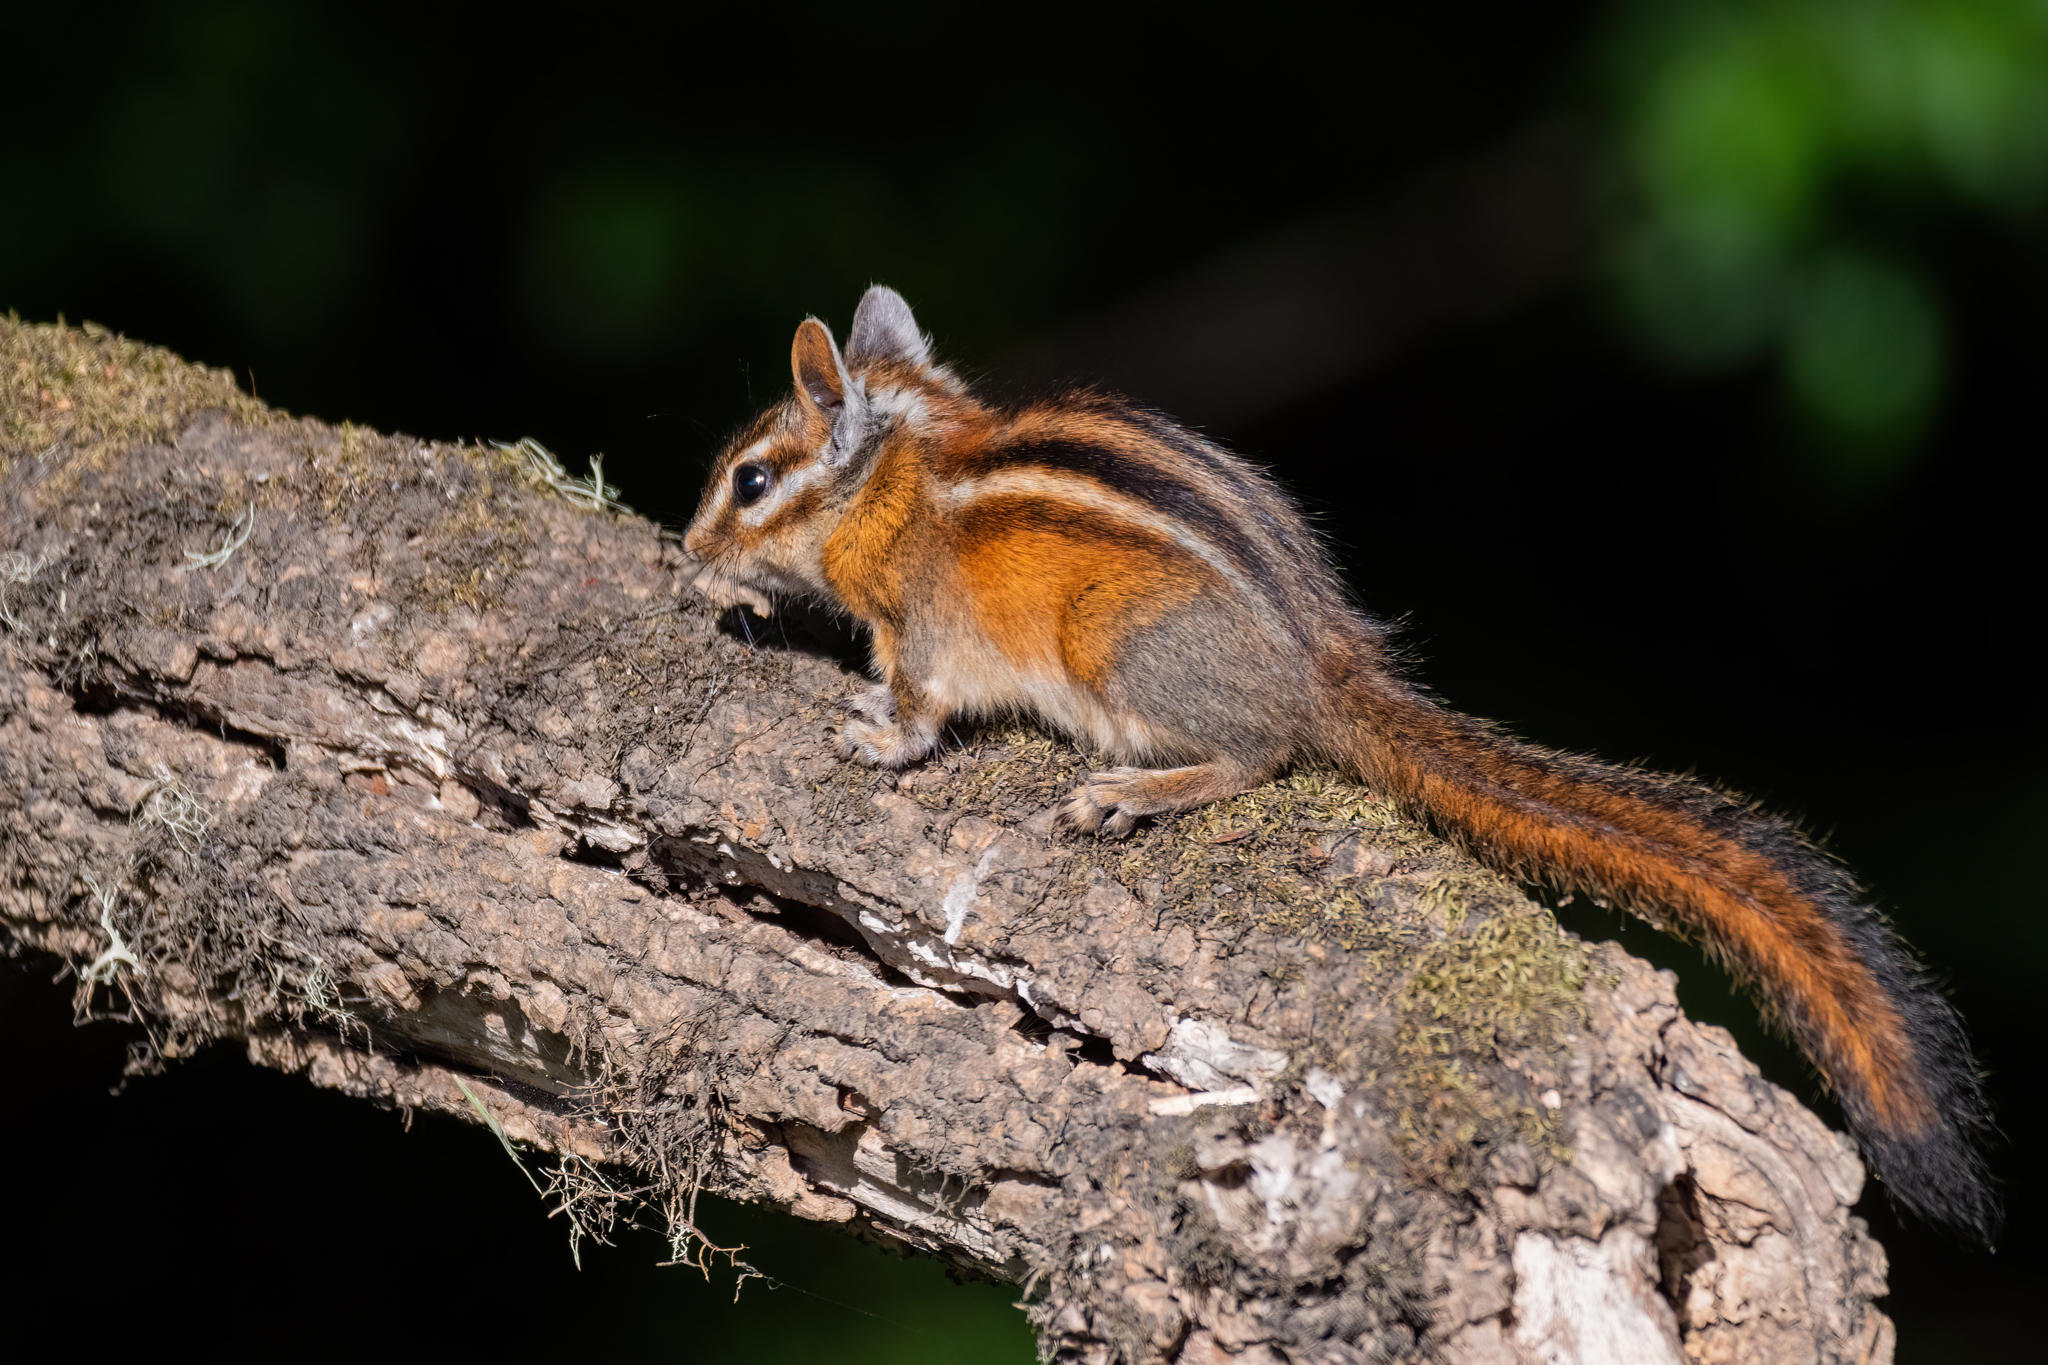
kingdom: Animalia
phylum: Chordata
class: Mammalia
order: Rodentia
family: Sciuridae
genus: Tamias
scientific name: Tamias sonomae
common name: Sonoma chipmunk
